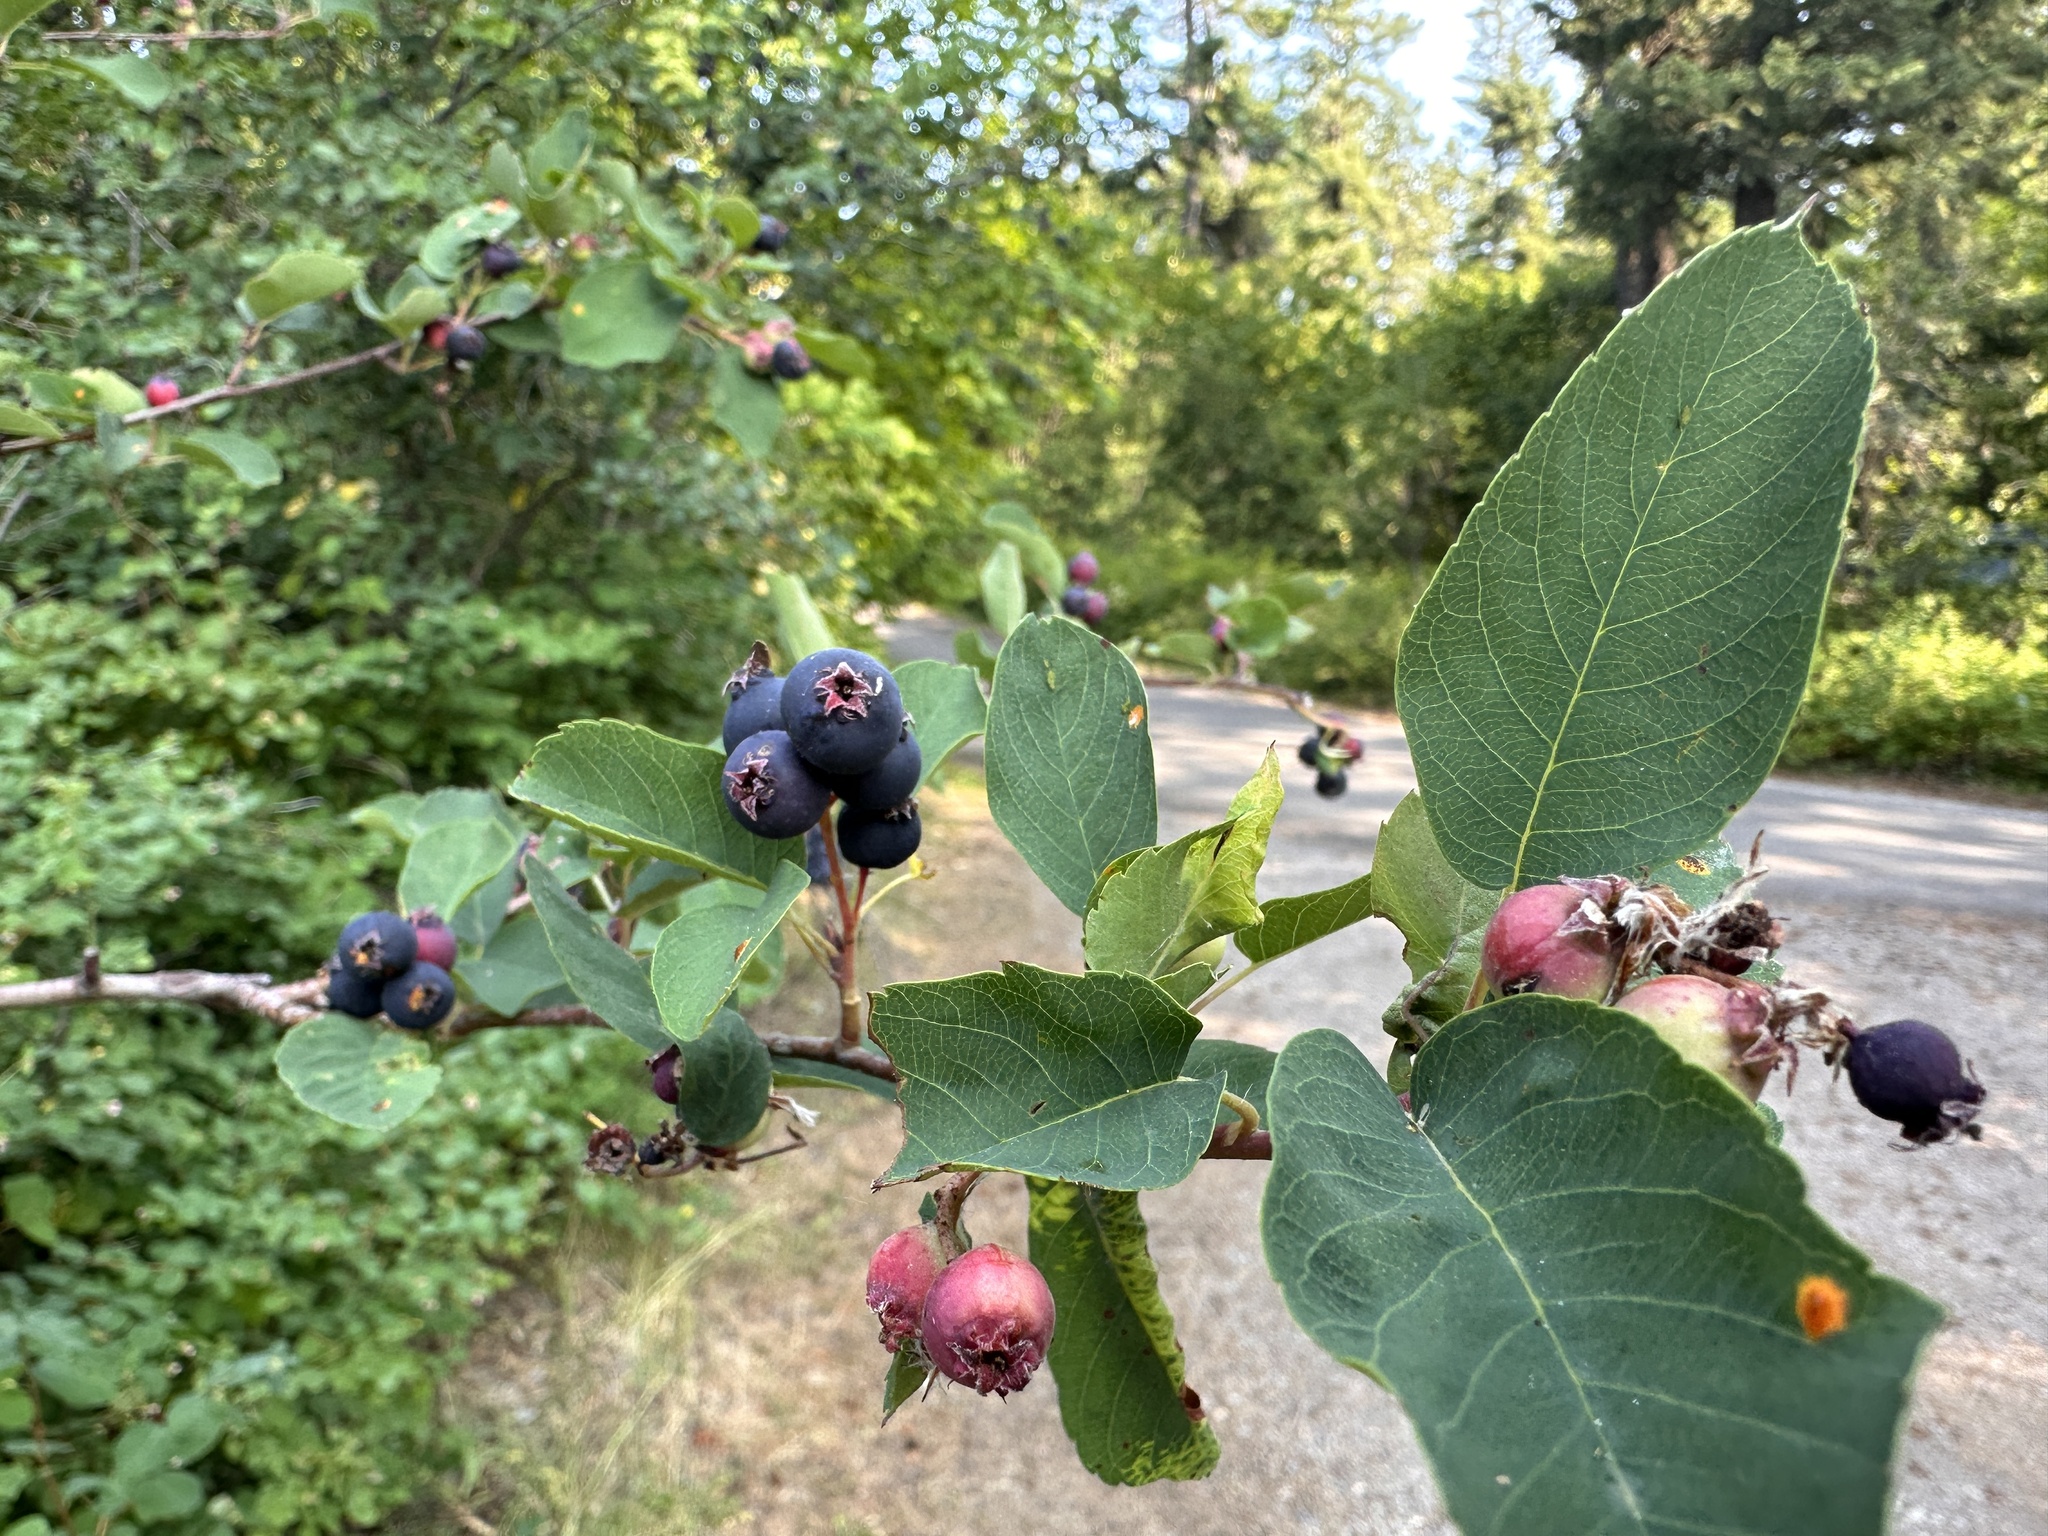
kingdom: Plantae
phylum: Tracheophyta
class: Magnoliopsida
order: Rosales
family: Rosaceae
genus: Amelanchier
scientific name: Amelanchier alnifolia
